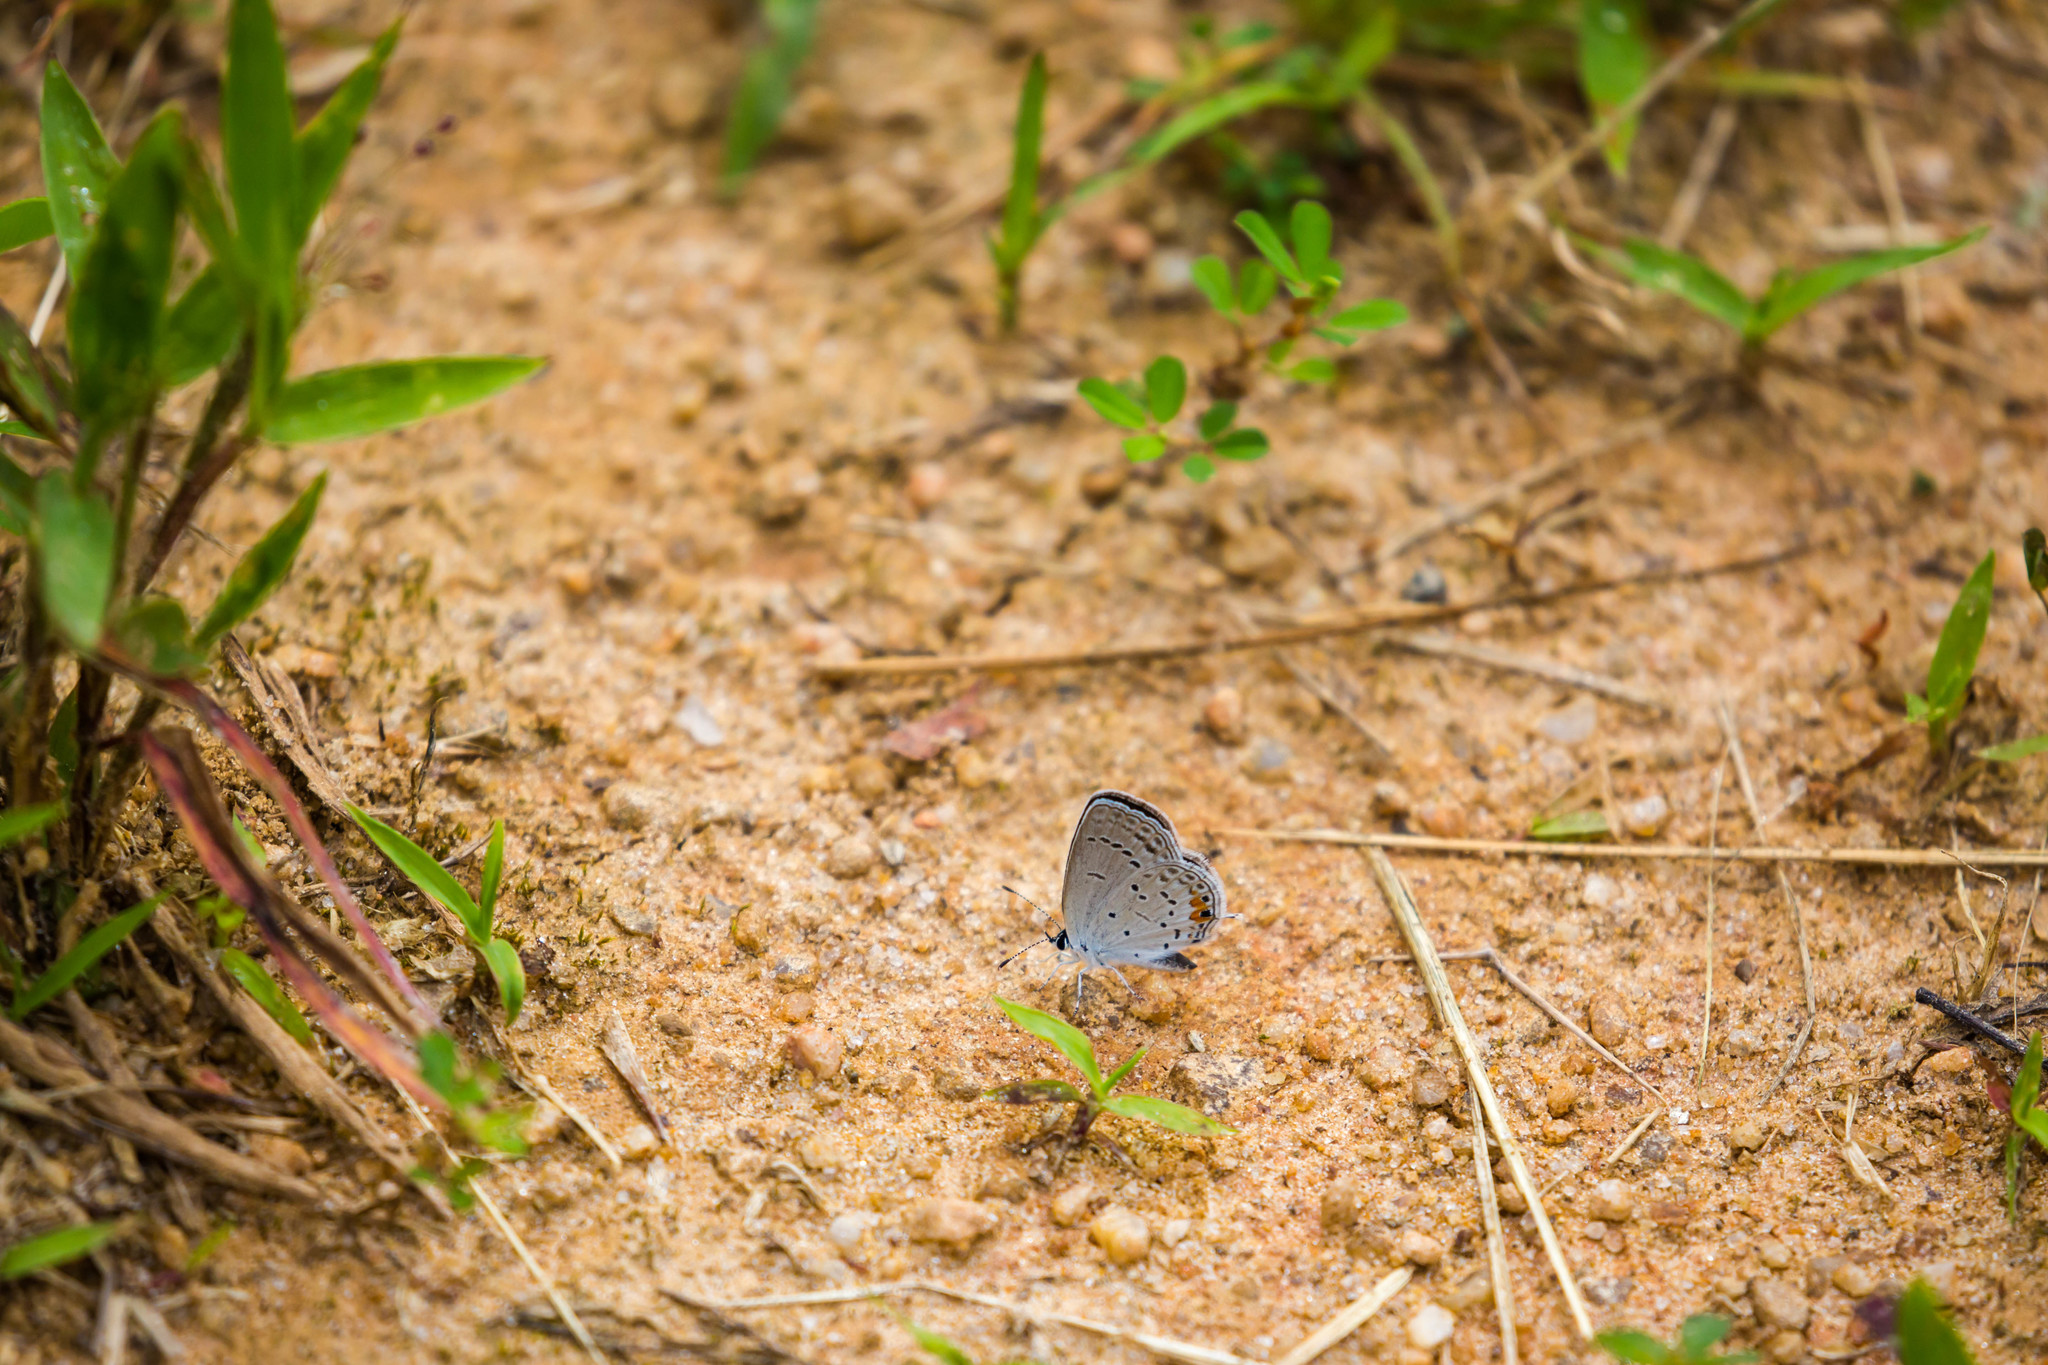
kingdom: Animalia
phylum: Arthropoda
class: Insecta
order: Lepidoptera
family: Lycaenidae
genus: Elkalyce
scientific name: Elkalyce comyntas
